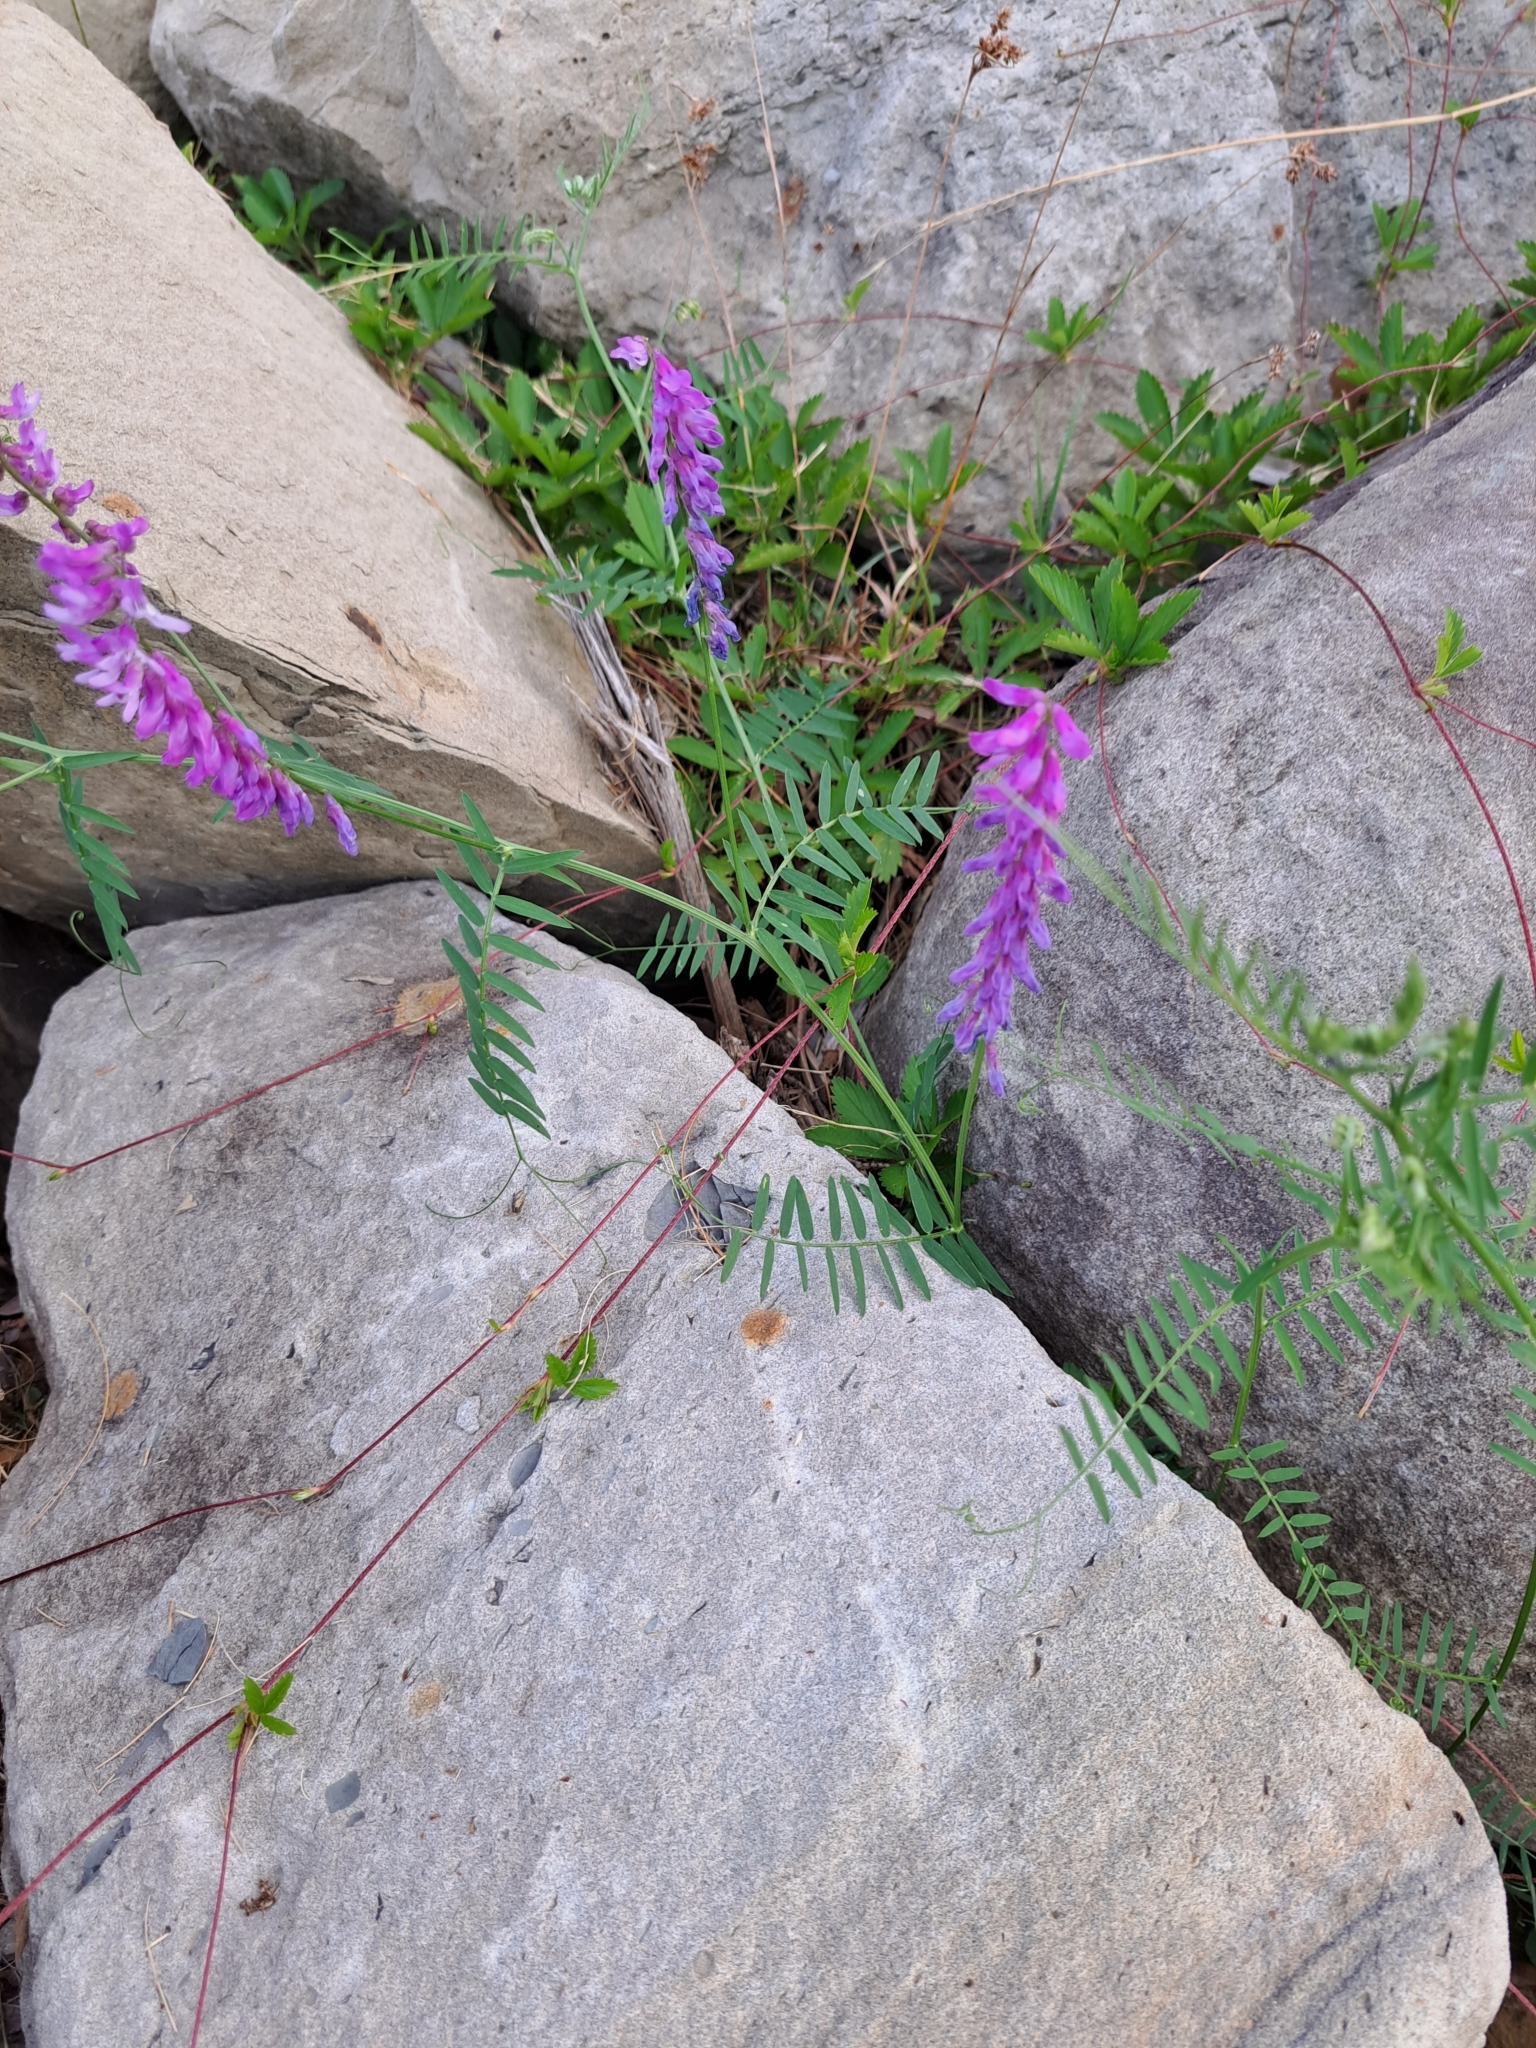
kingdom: Plantae
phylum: Tracheophyta
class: Magnoliopsida
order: Fabales
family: Fabaceae
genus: Vicia
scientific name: Vicia cracca
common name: Bird vetch
